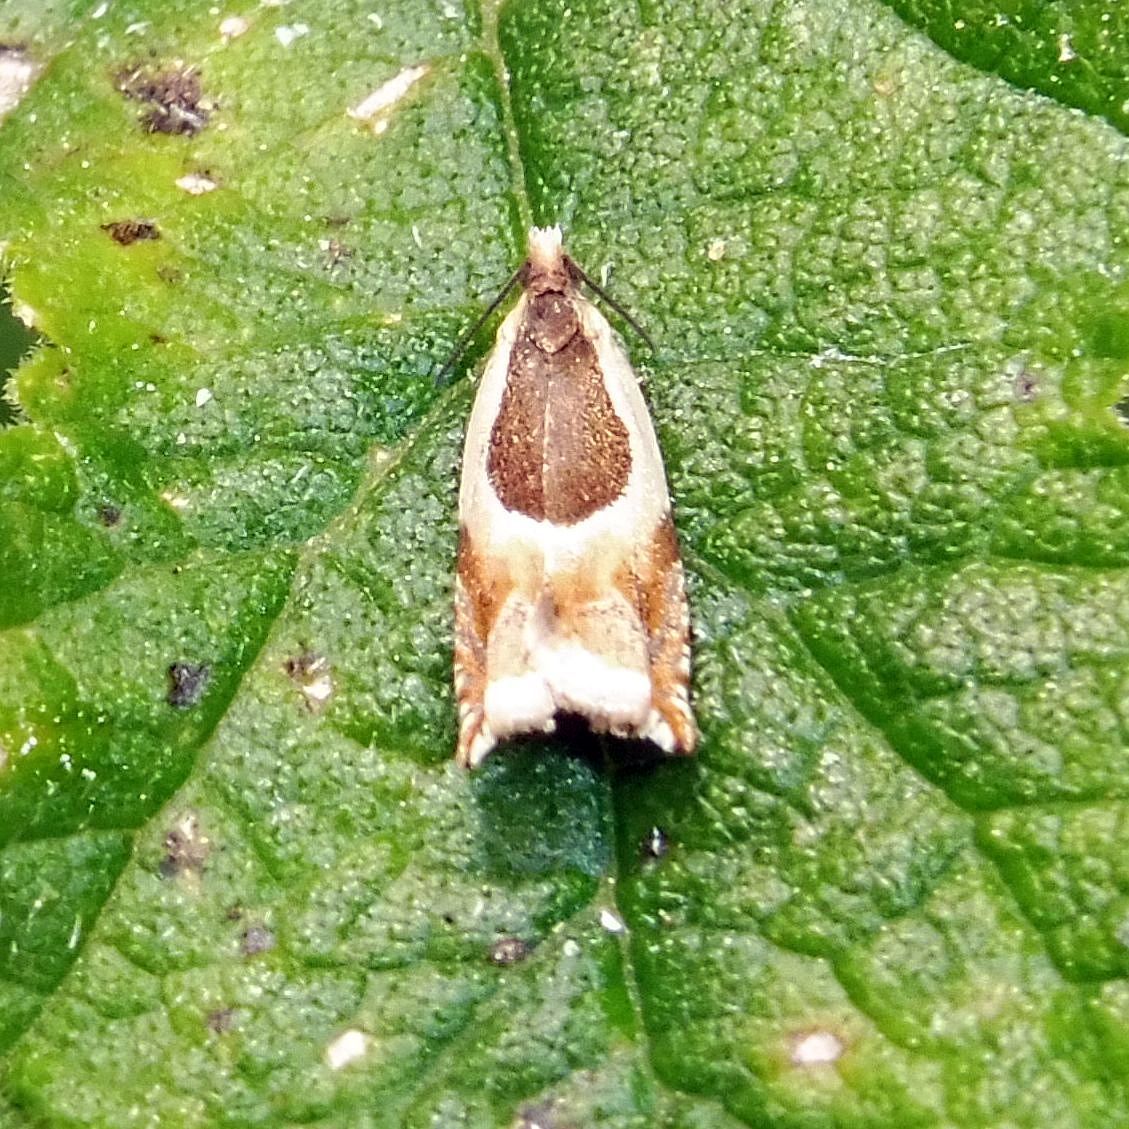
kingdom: Animalia
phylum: Arthropoda
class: Insecta
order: Lepidoptera
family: Tortricidae
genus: Ancylis
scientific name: Ancylis badiana
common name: Common roller
